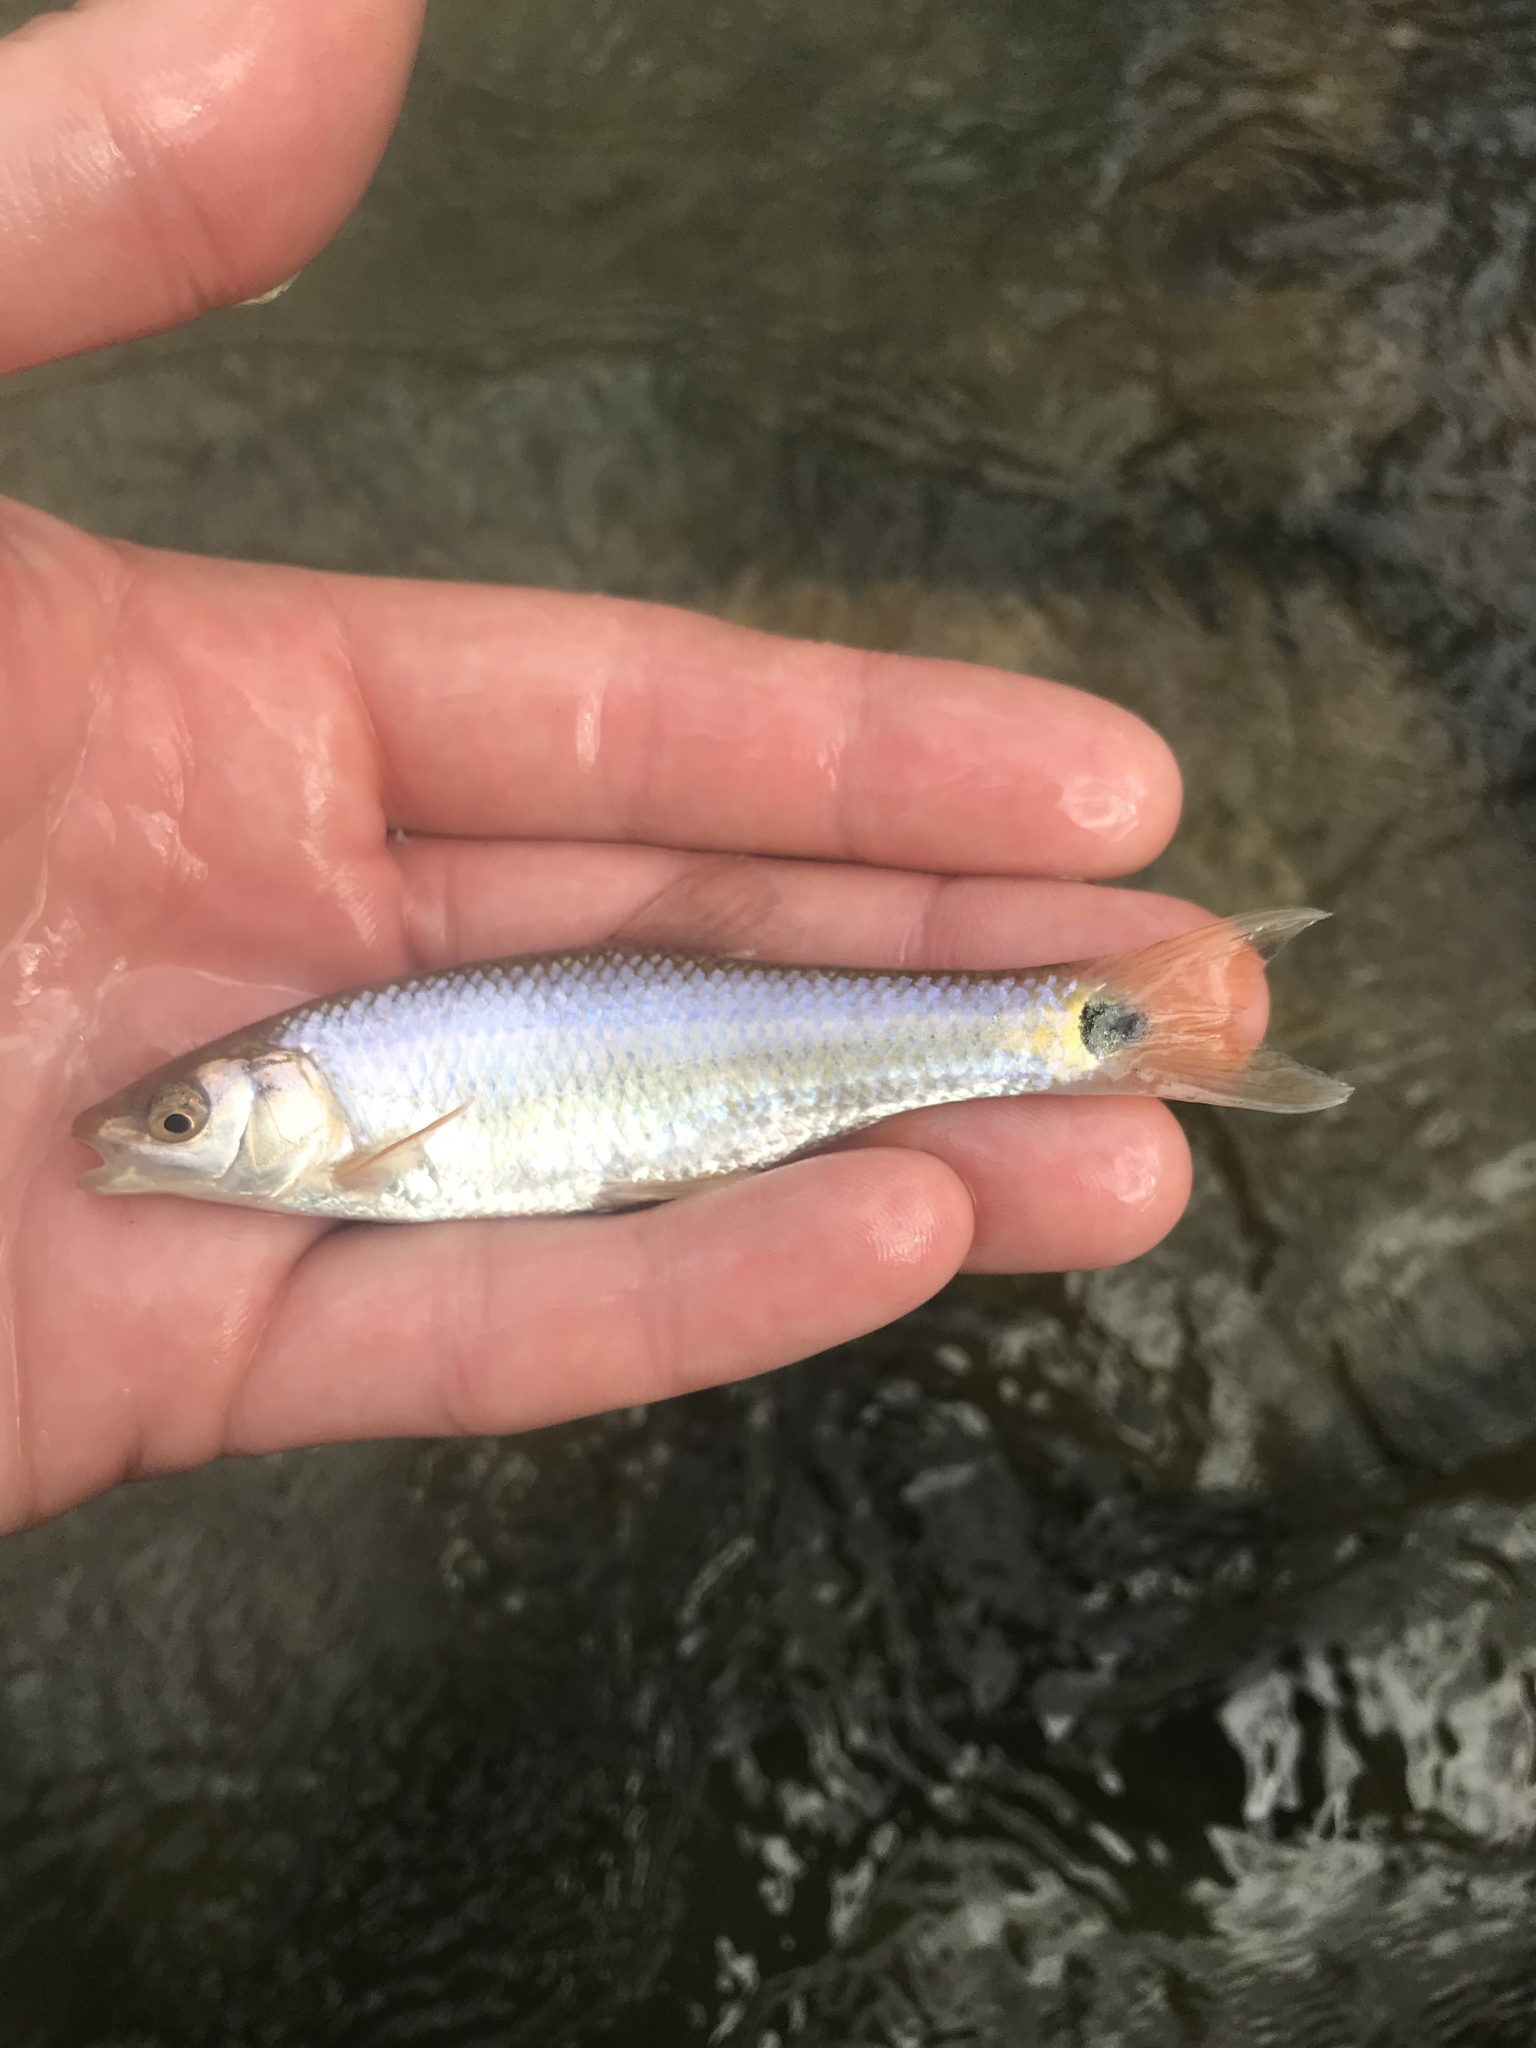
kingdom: Animalia
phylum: Chordata
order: Cypriniformes
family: Cyprinidae
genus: Cyprinella
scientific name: Cyprinella venusta
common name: Blacktail shiner
